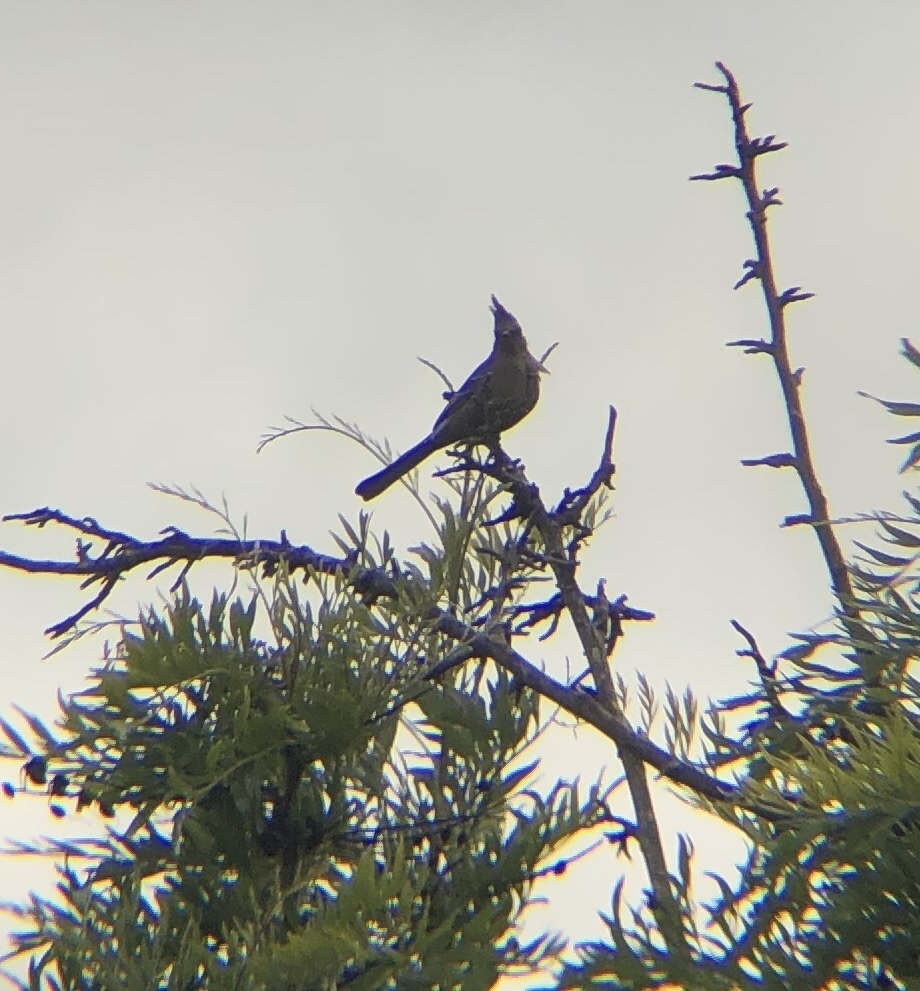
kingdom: Animalia
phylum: Chordata
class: Aves
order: Passeriformes
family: Ptilogonatidae
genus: Phainopepla
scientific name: Phainopepla nitens
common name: Phainopepla
